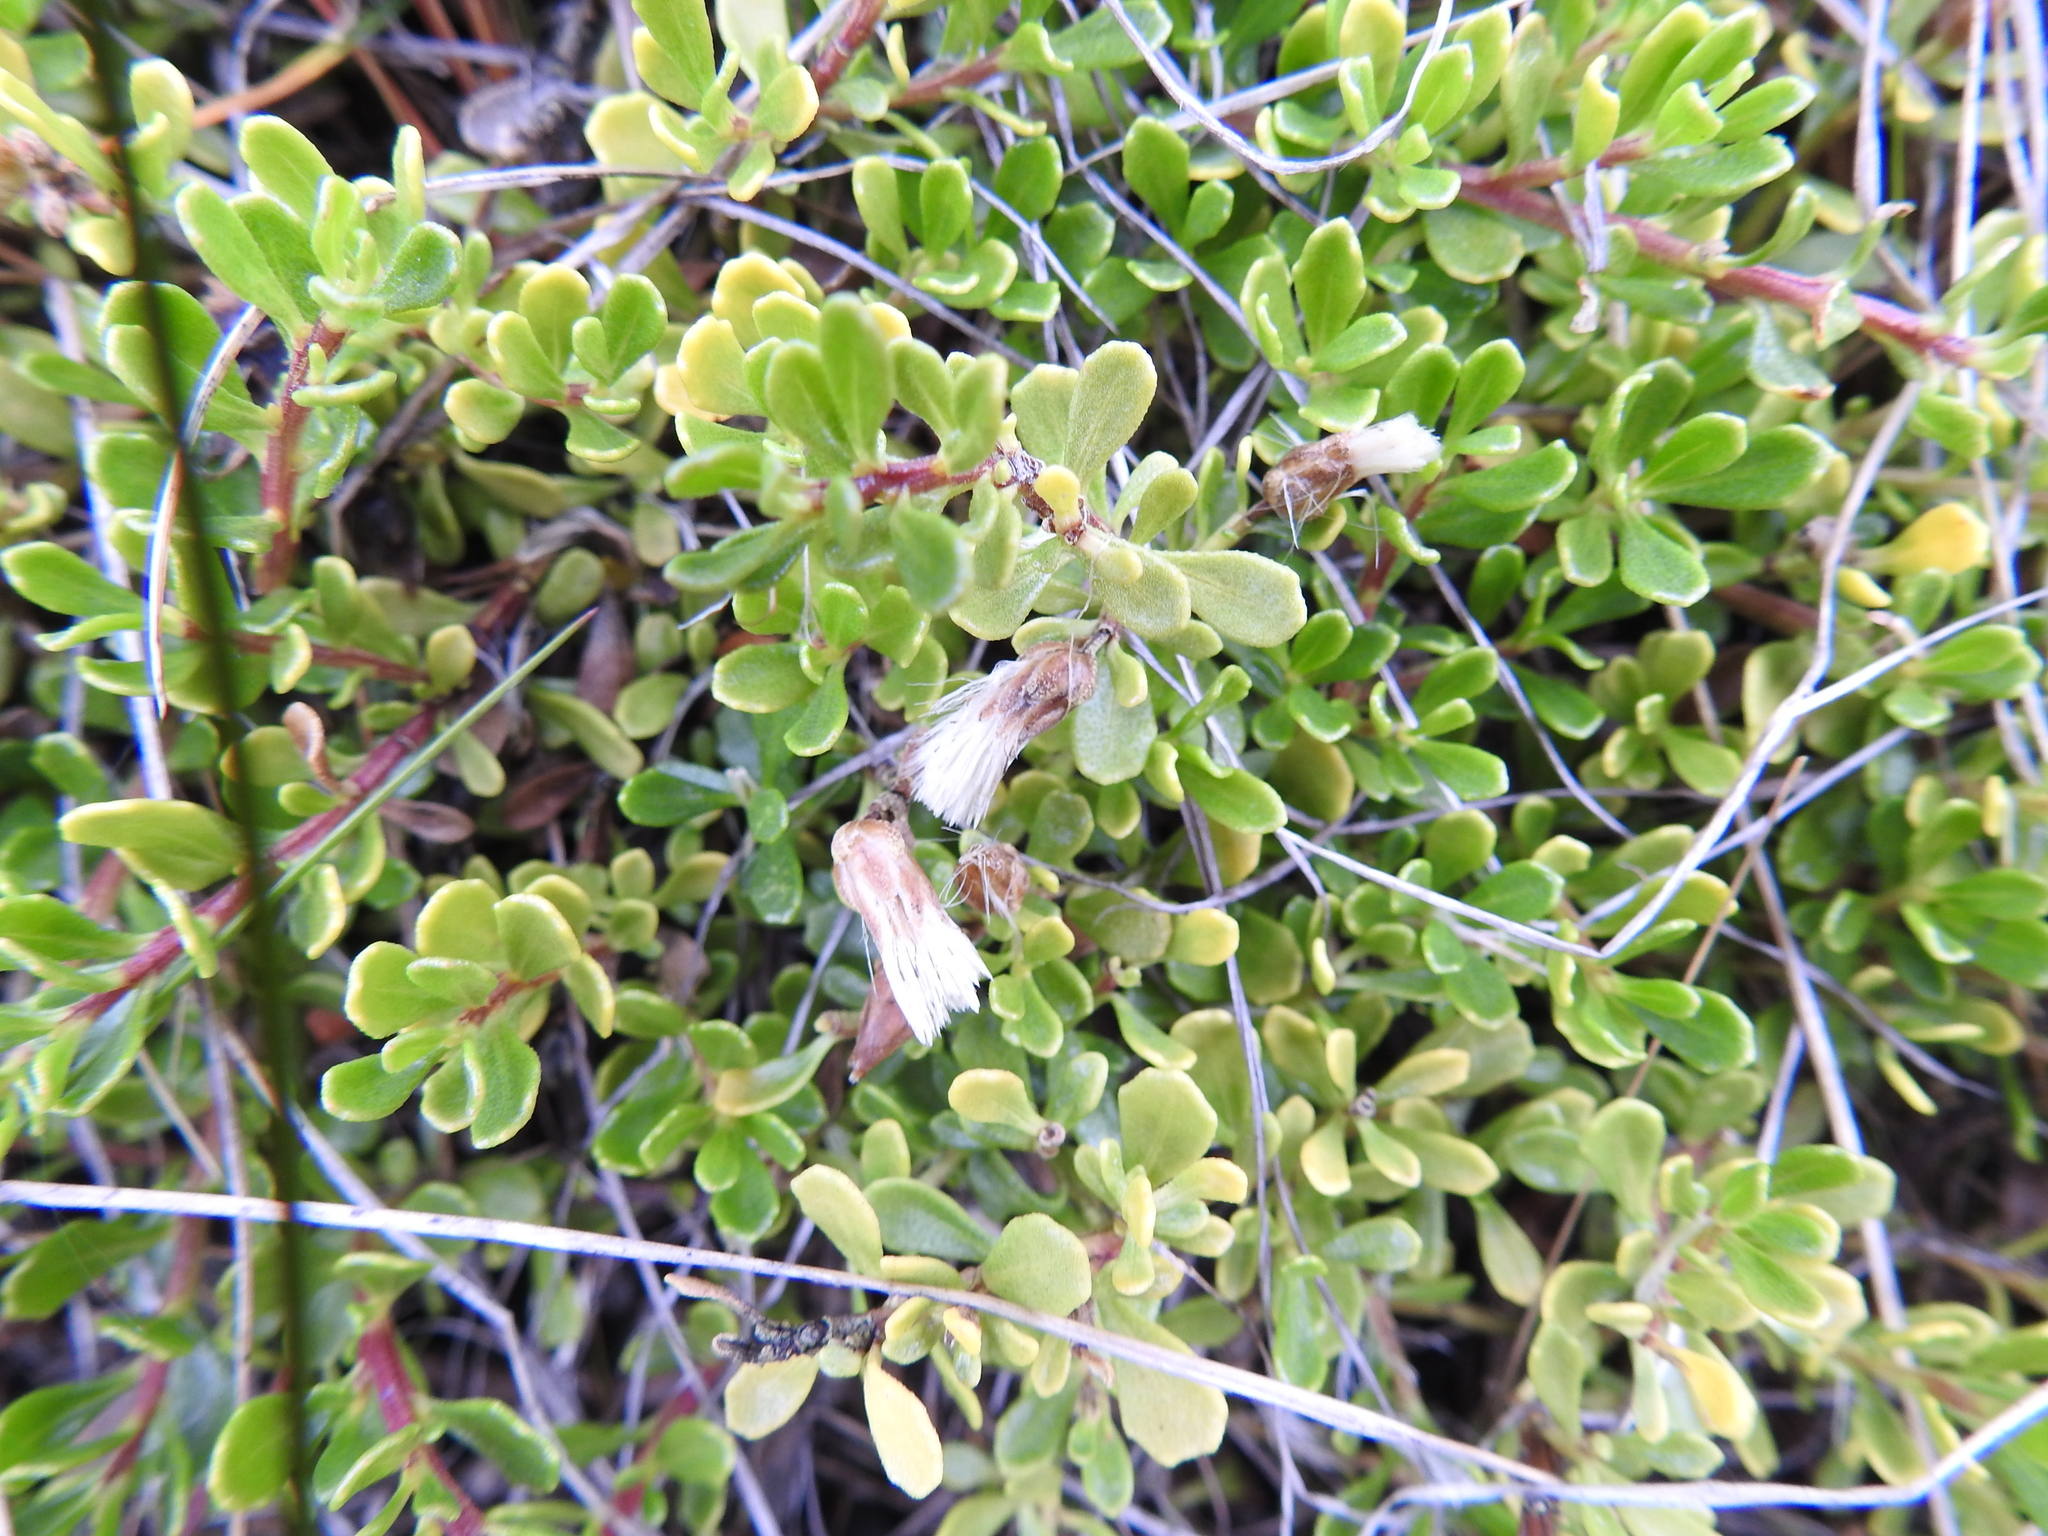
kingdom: Plantae
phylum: Tracheophyta
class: Magnoliopsida
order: Asterales
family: Asteraceae
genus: Baccharis
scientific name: Baccharis magellanica
